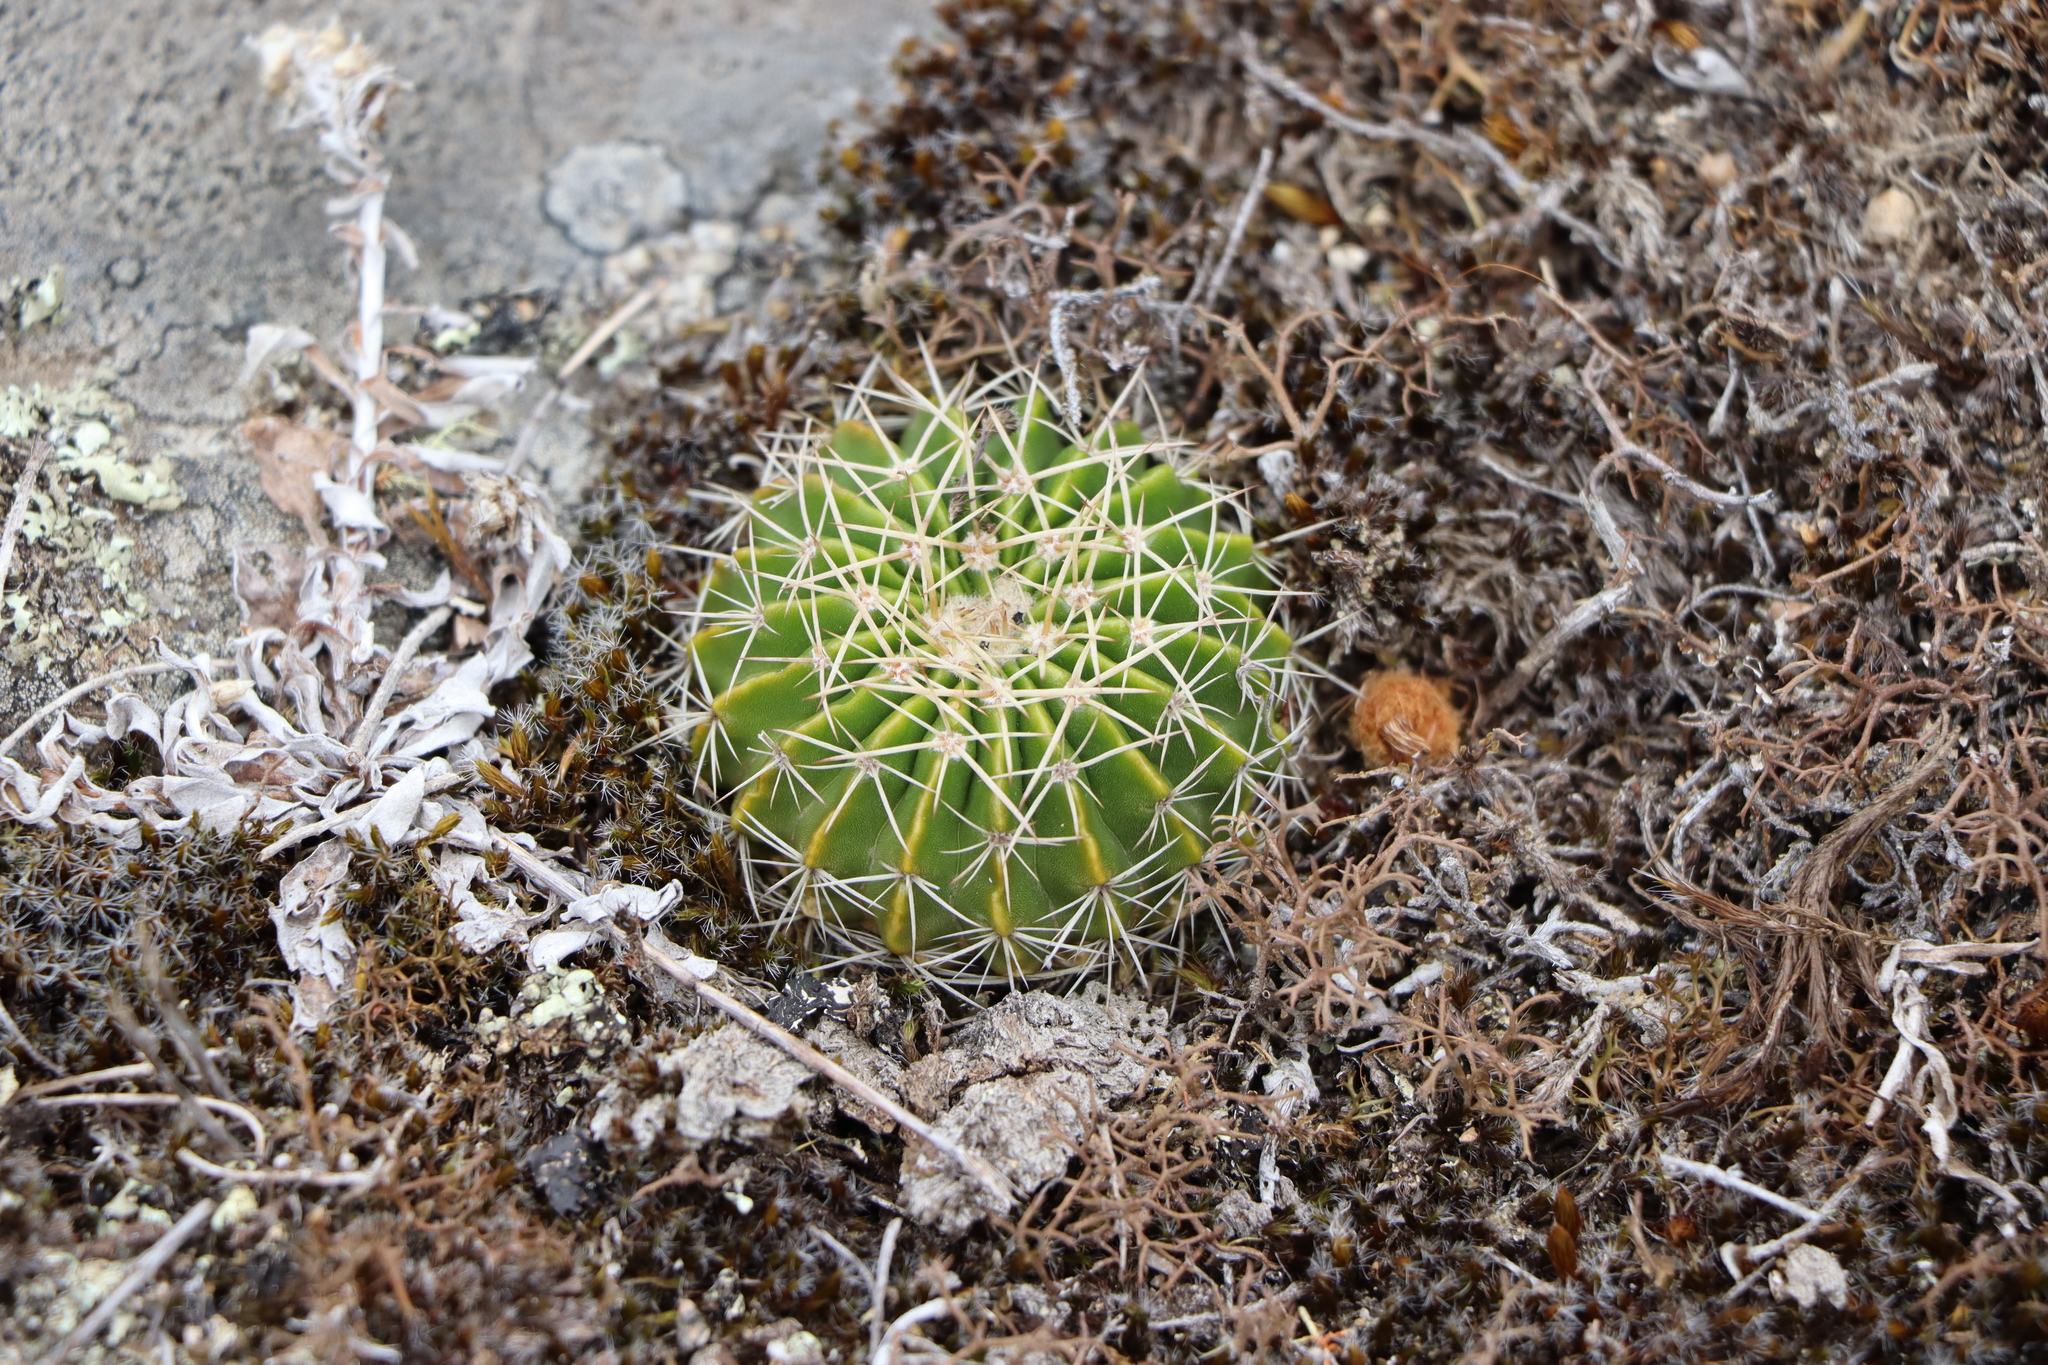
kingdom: Plantae
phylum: Tracheophyta
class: Magnoliopsida
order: Caryophyllales
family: Cactaceae
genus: Parodia
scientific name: Parodia erinacea
